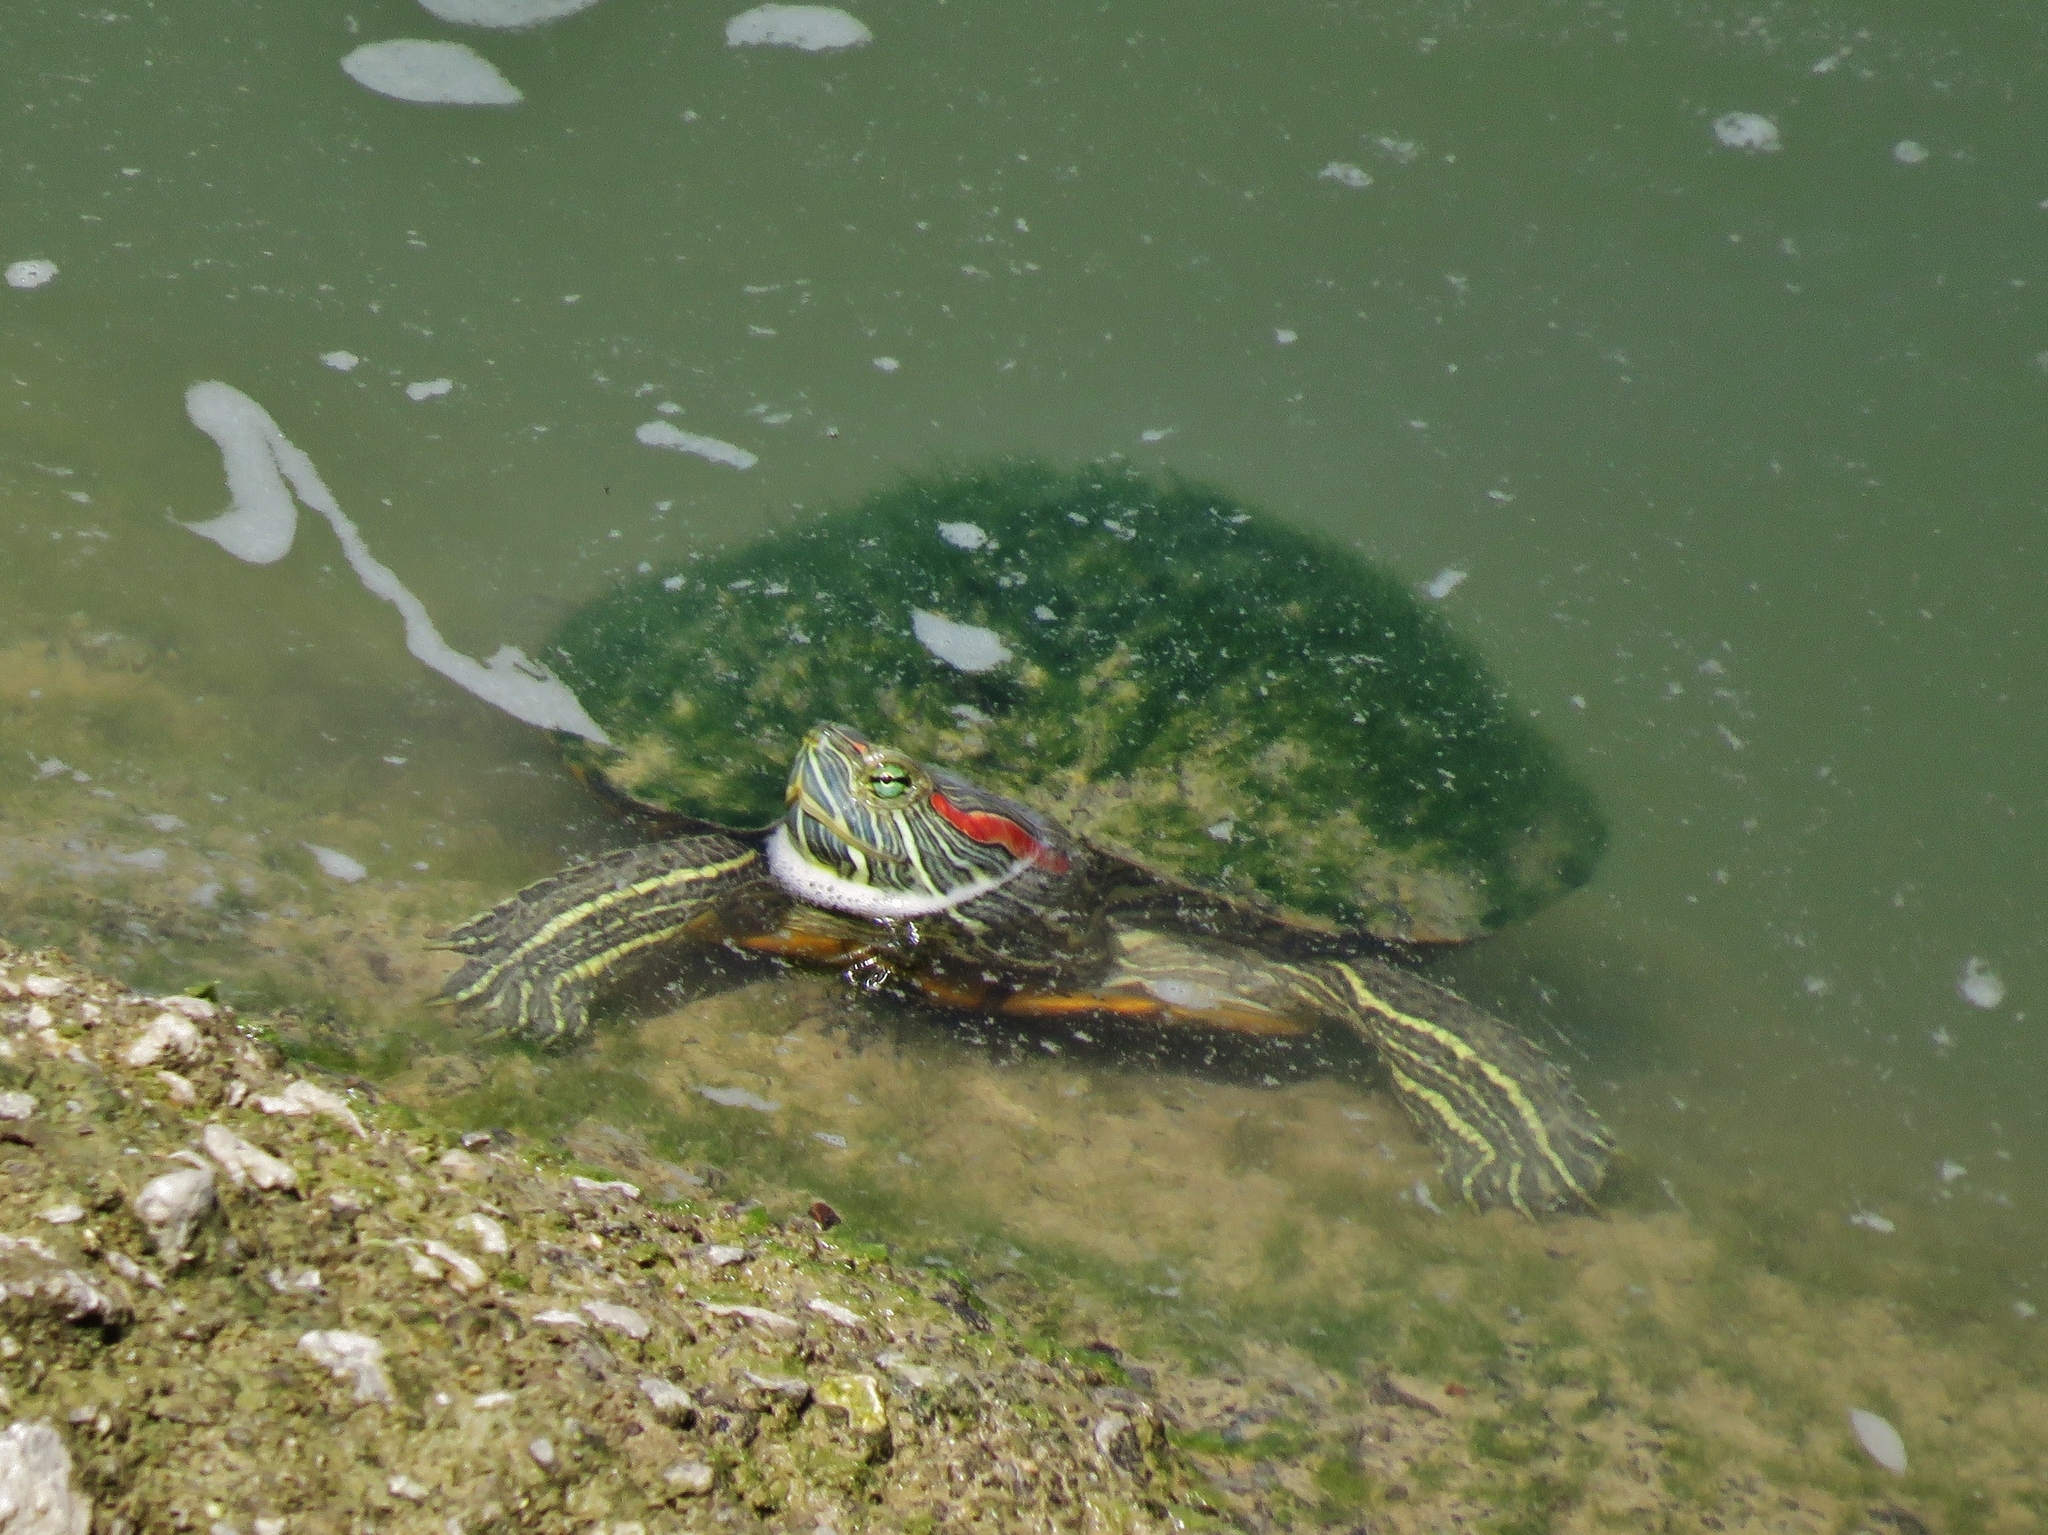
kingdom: Animalia
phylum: Chordata
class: Testudines
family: Emydidae
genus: Trachemys
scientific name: Trachemys scripta
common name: Slider
